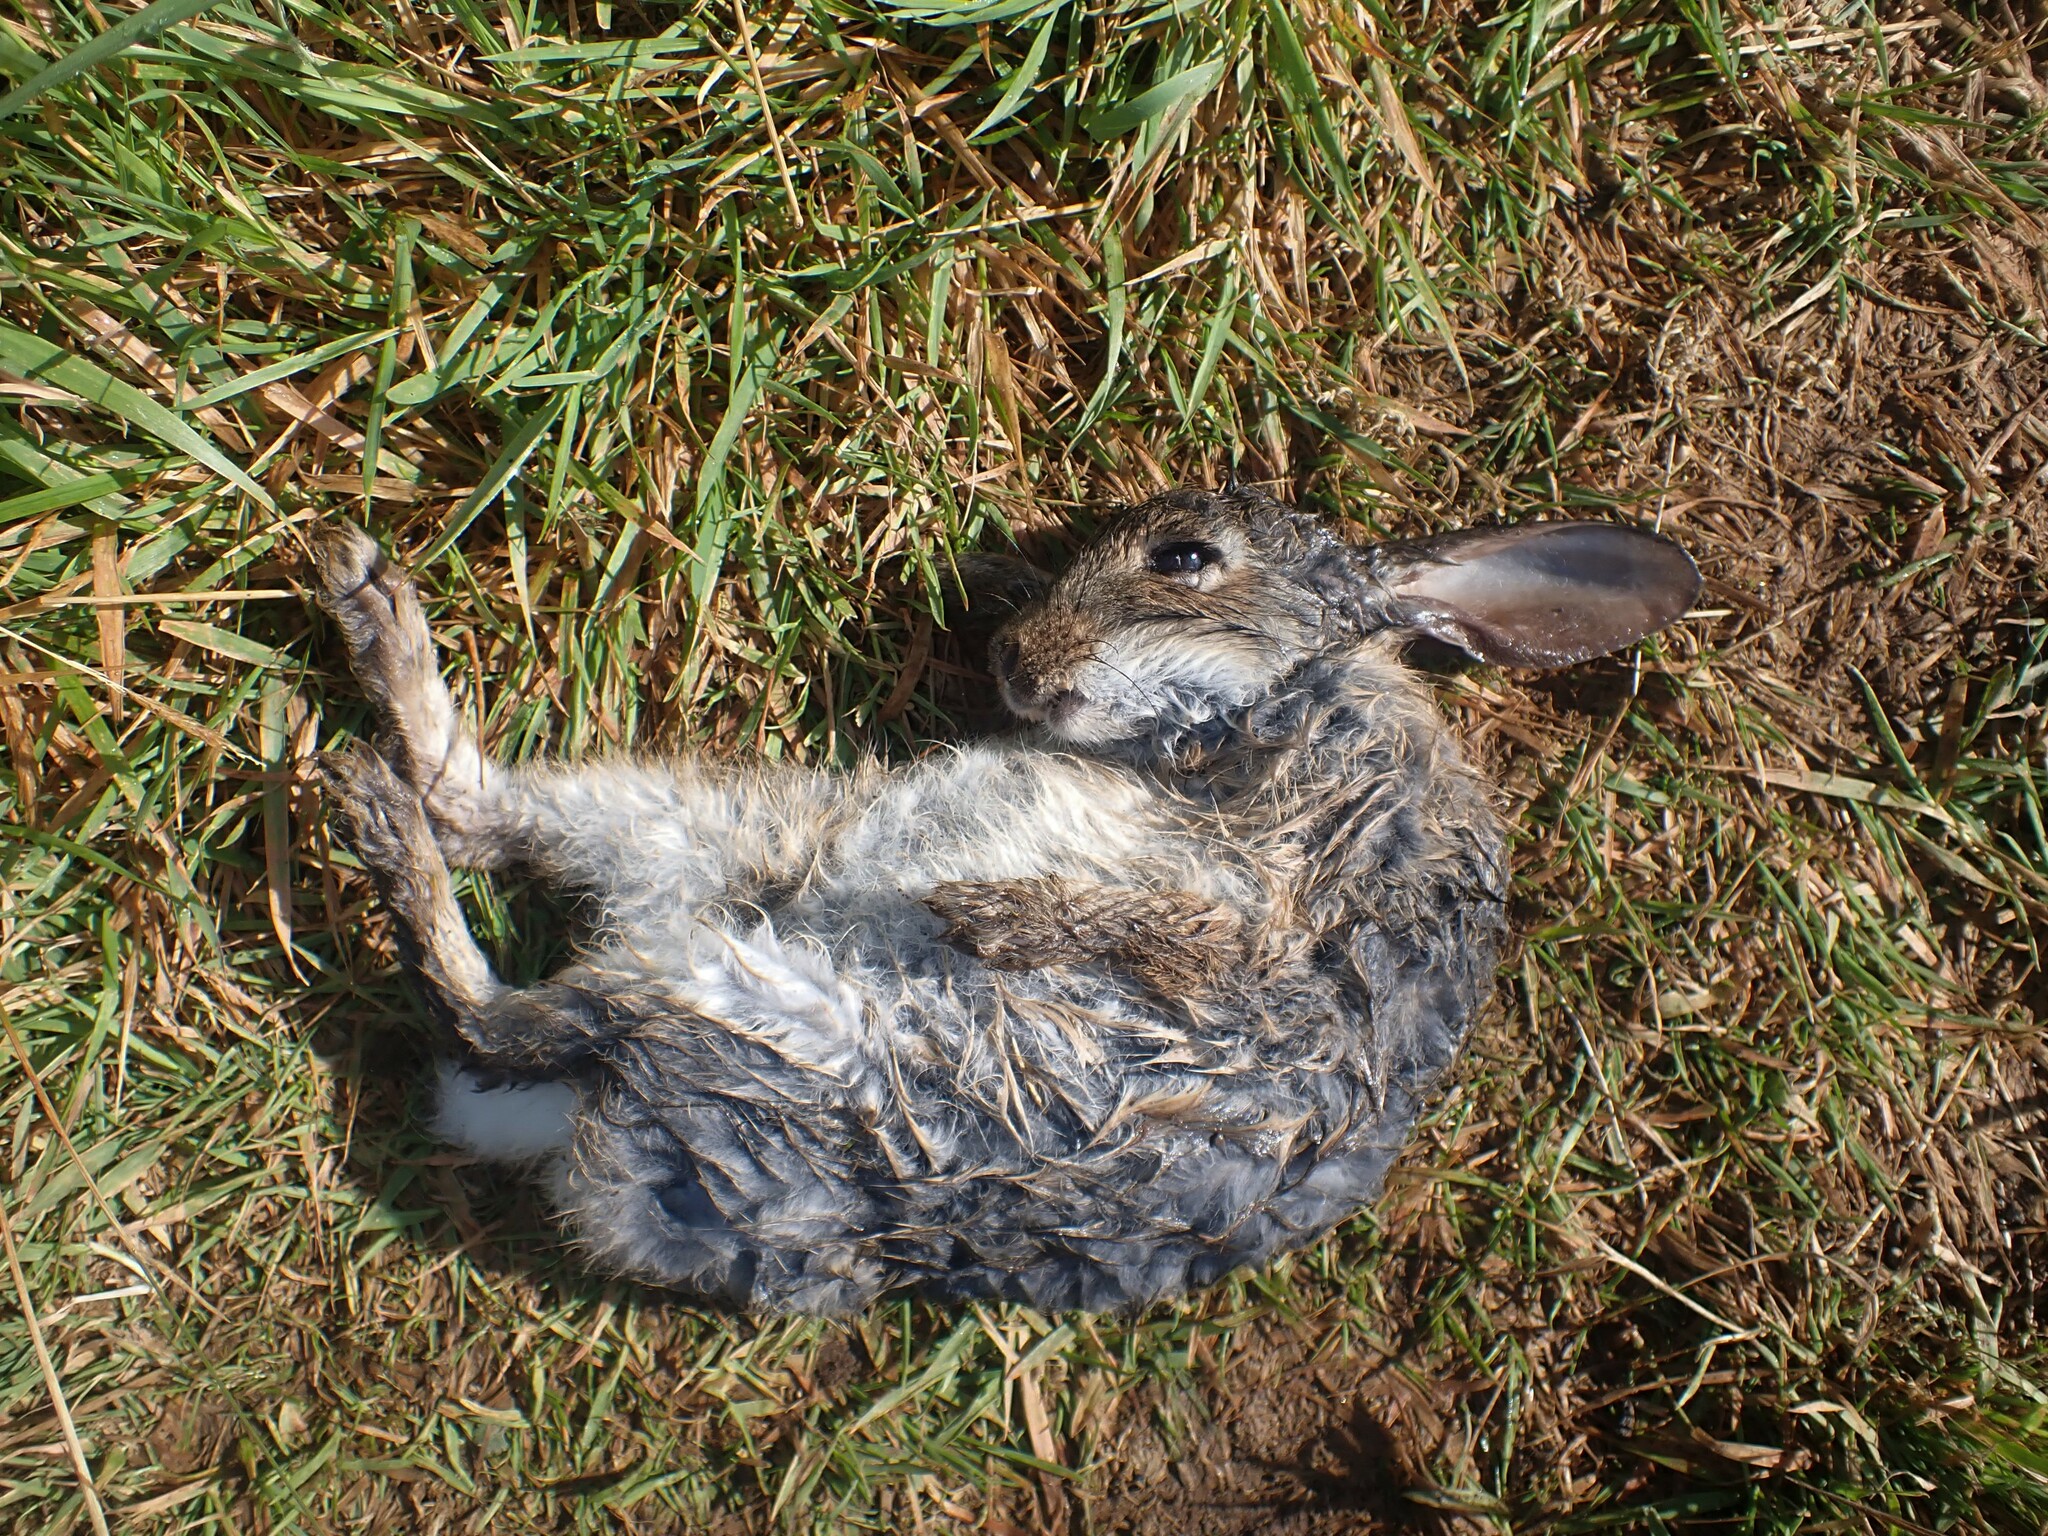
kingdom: Animalia
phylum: Chordata
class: Mammalia
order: Lagomorpha
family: Leporidae
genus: Oryctolagus
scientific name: Oryctolagus cuniculus
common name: European rabbit
